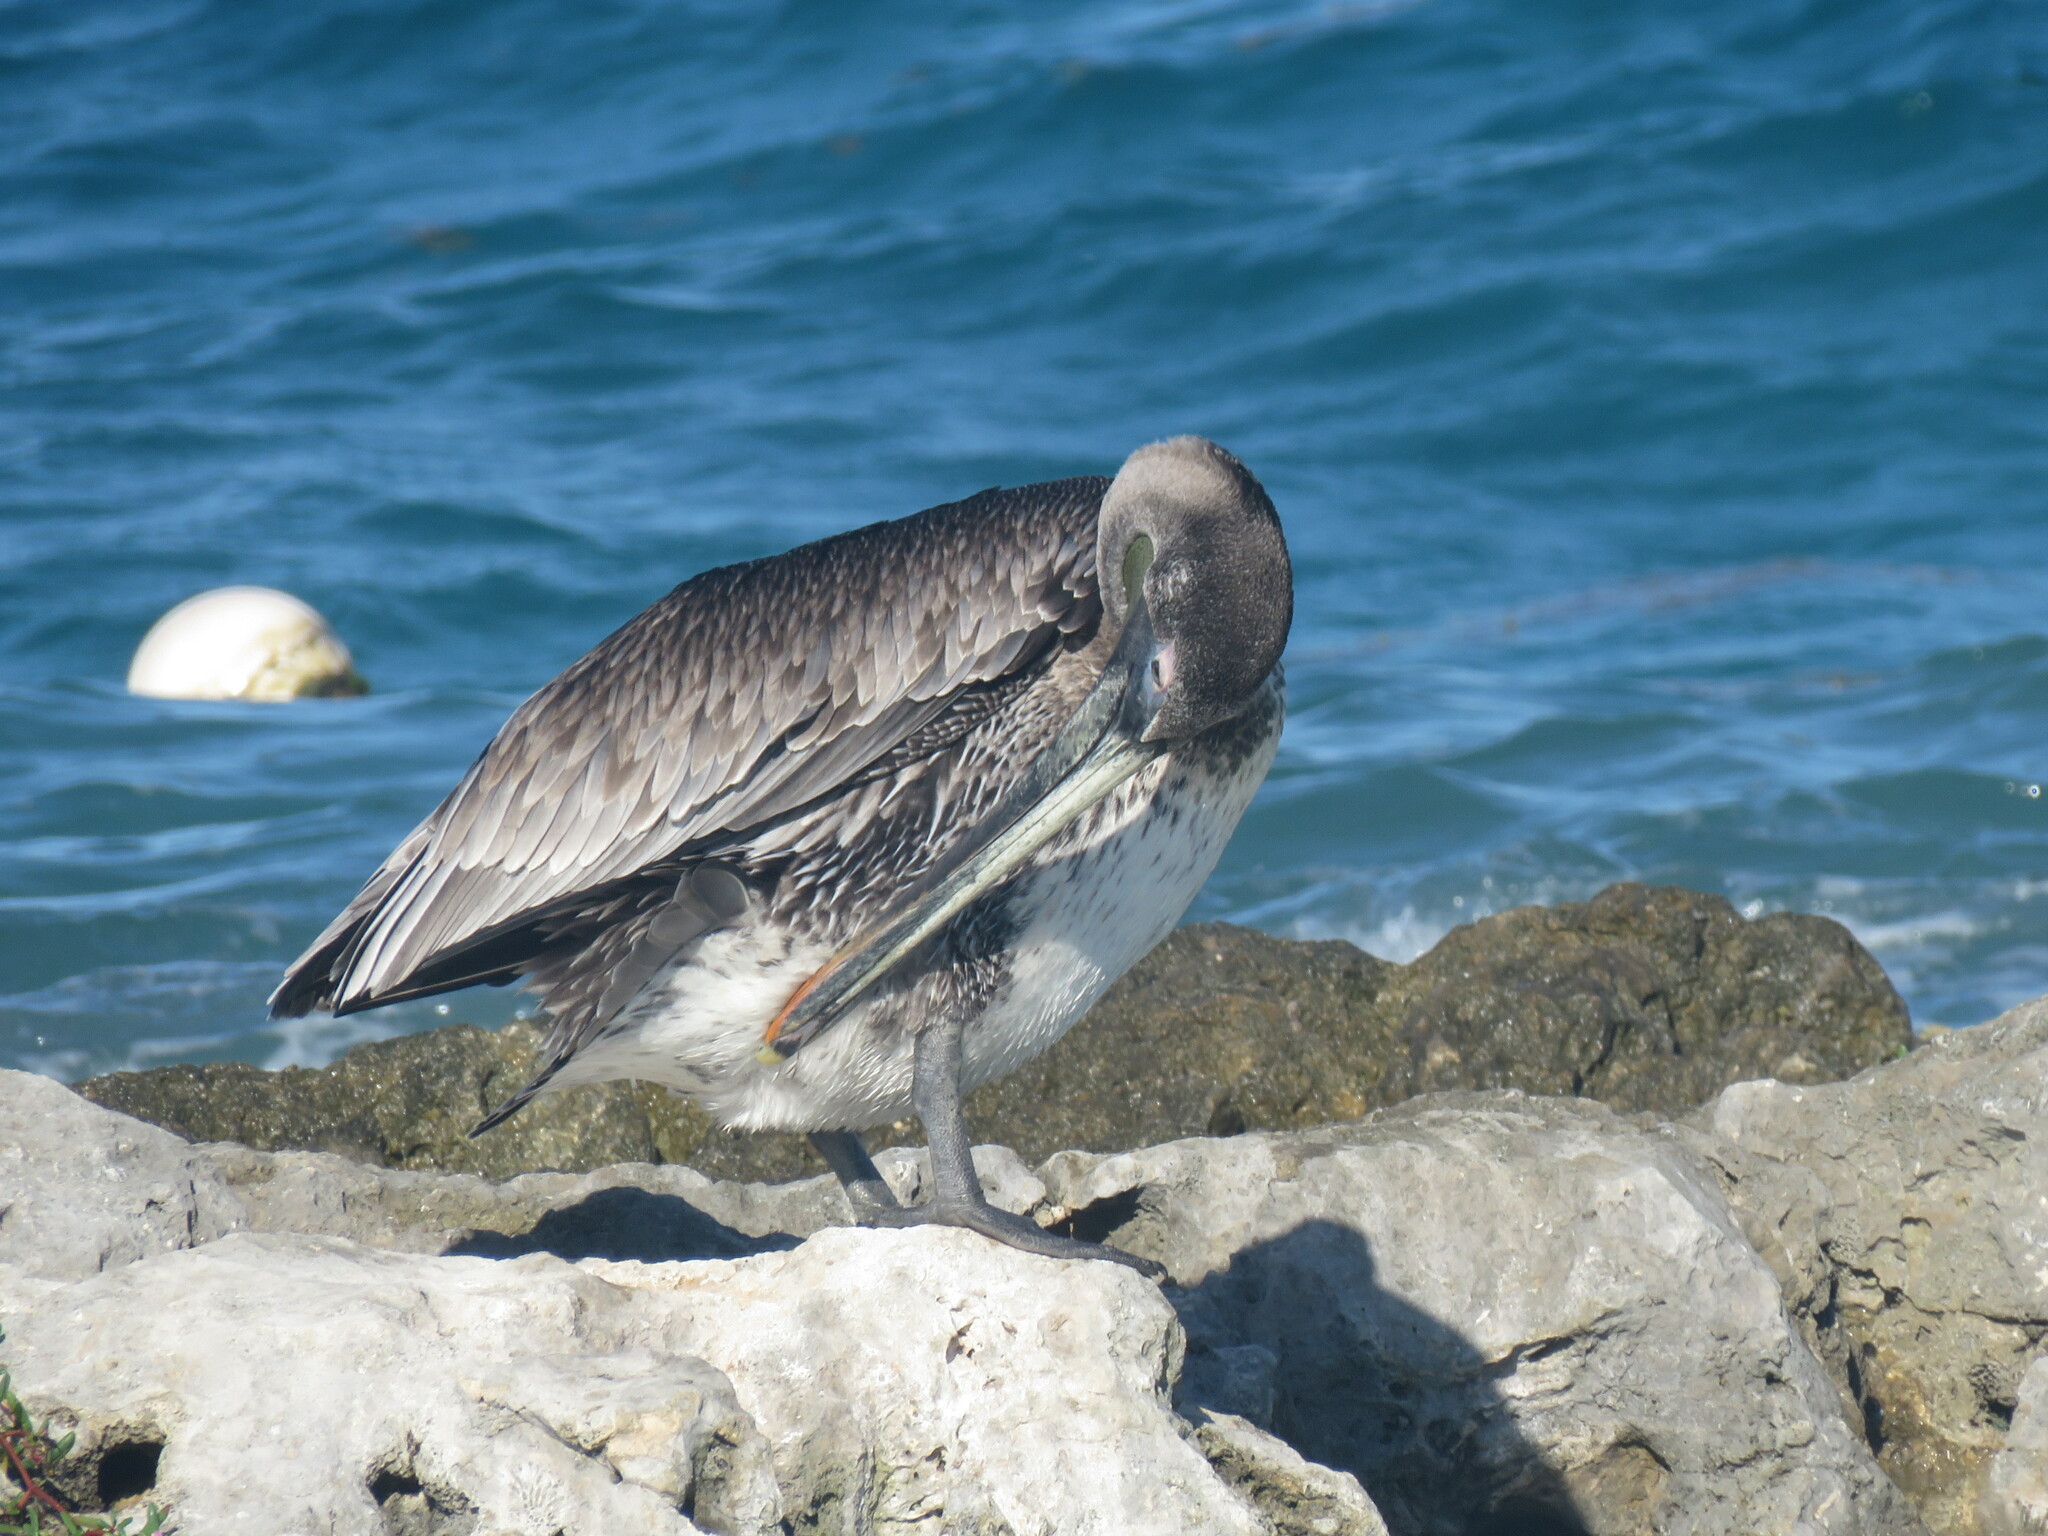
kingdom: Animalia
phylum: Chordata
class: Aves
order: Pelecaniformes
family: Pelecanidae
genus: Pelecanus
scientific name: Pelecanus occidentalis
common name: Brown pelican
